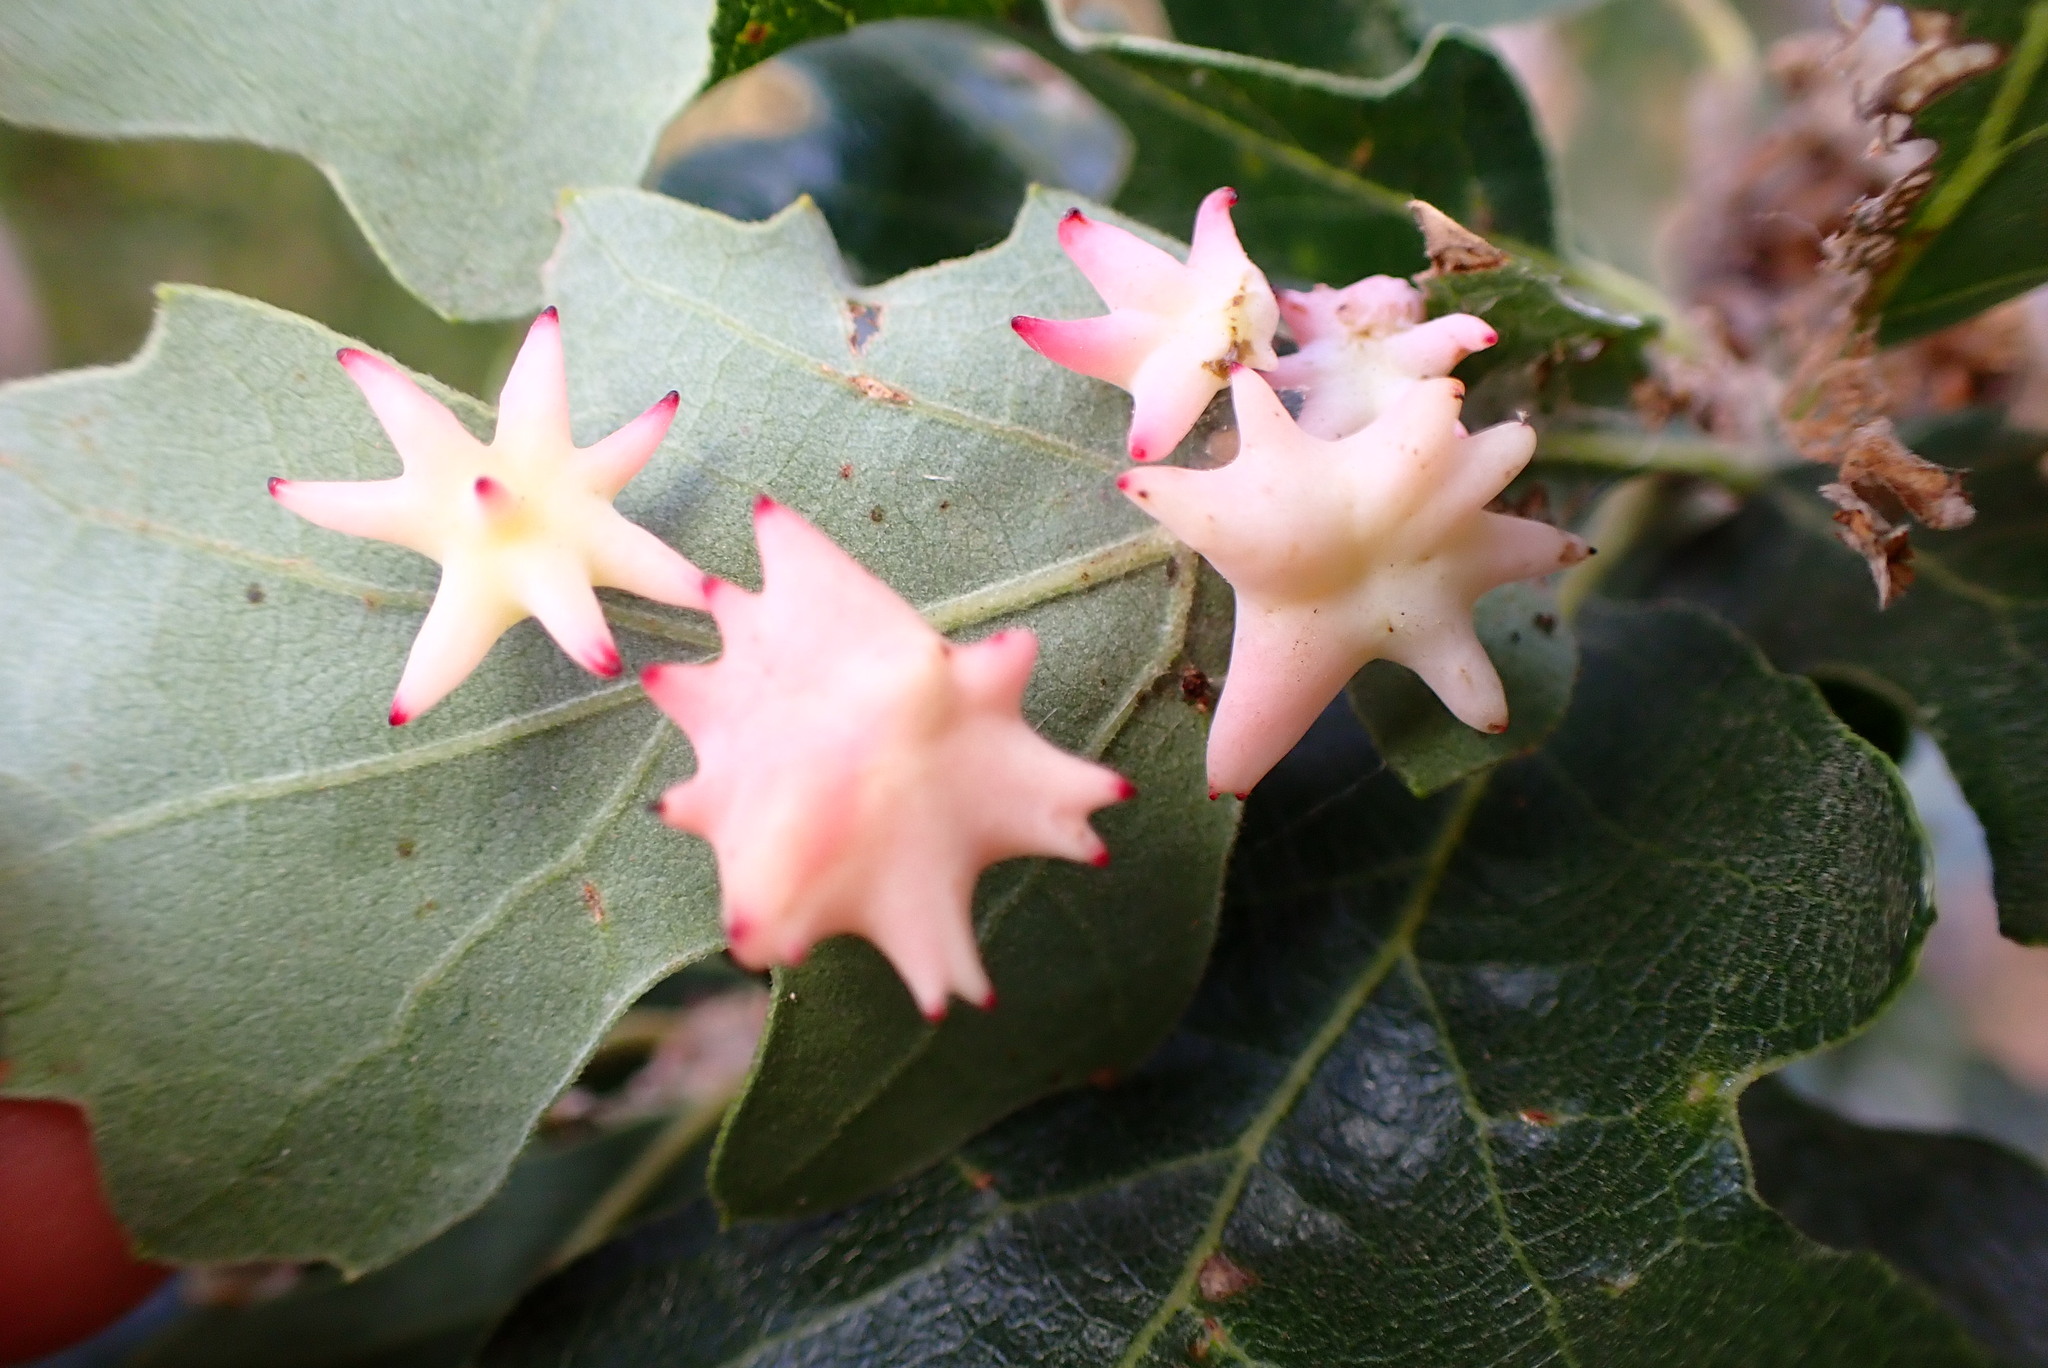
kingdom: Animalia
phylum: Arthropoda
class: Insecta
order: Hymenoptera
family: Cynipidae
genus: Cynips
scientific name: Cynips douglasi
